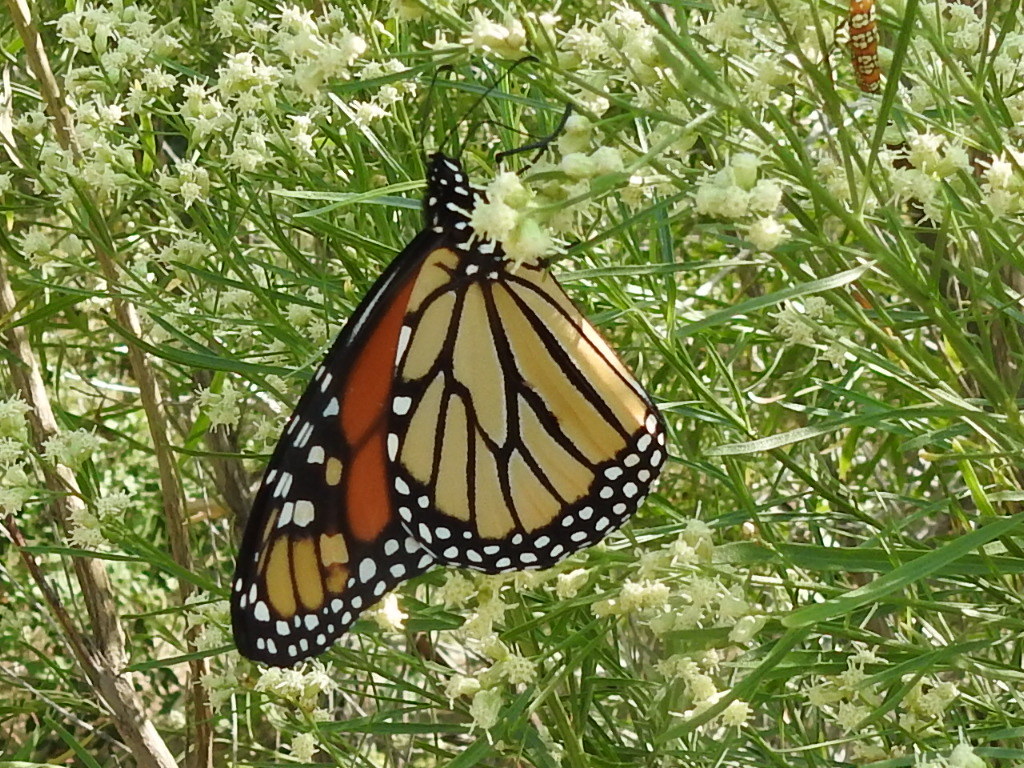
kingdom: Animalia
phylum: Arthropoda
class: Insecta
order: Lepidoptera
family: Nymphalidae
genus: Danaus
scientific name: Danaus plexippus
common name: Monarch
